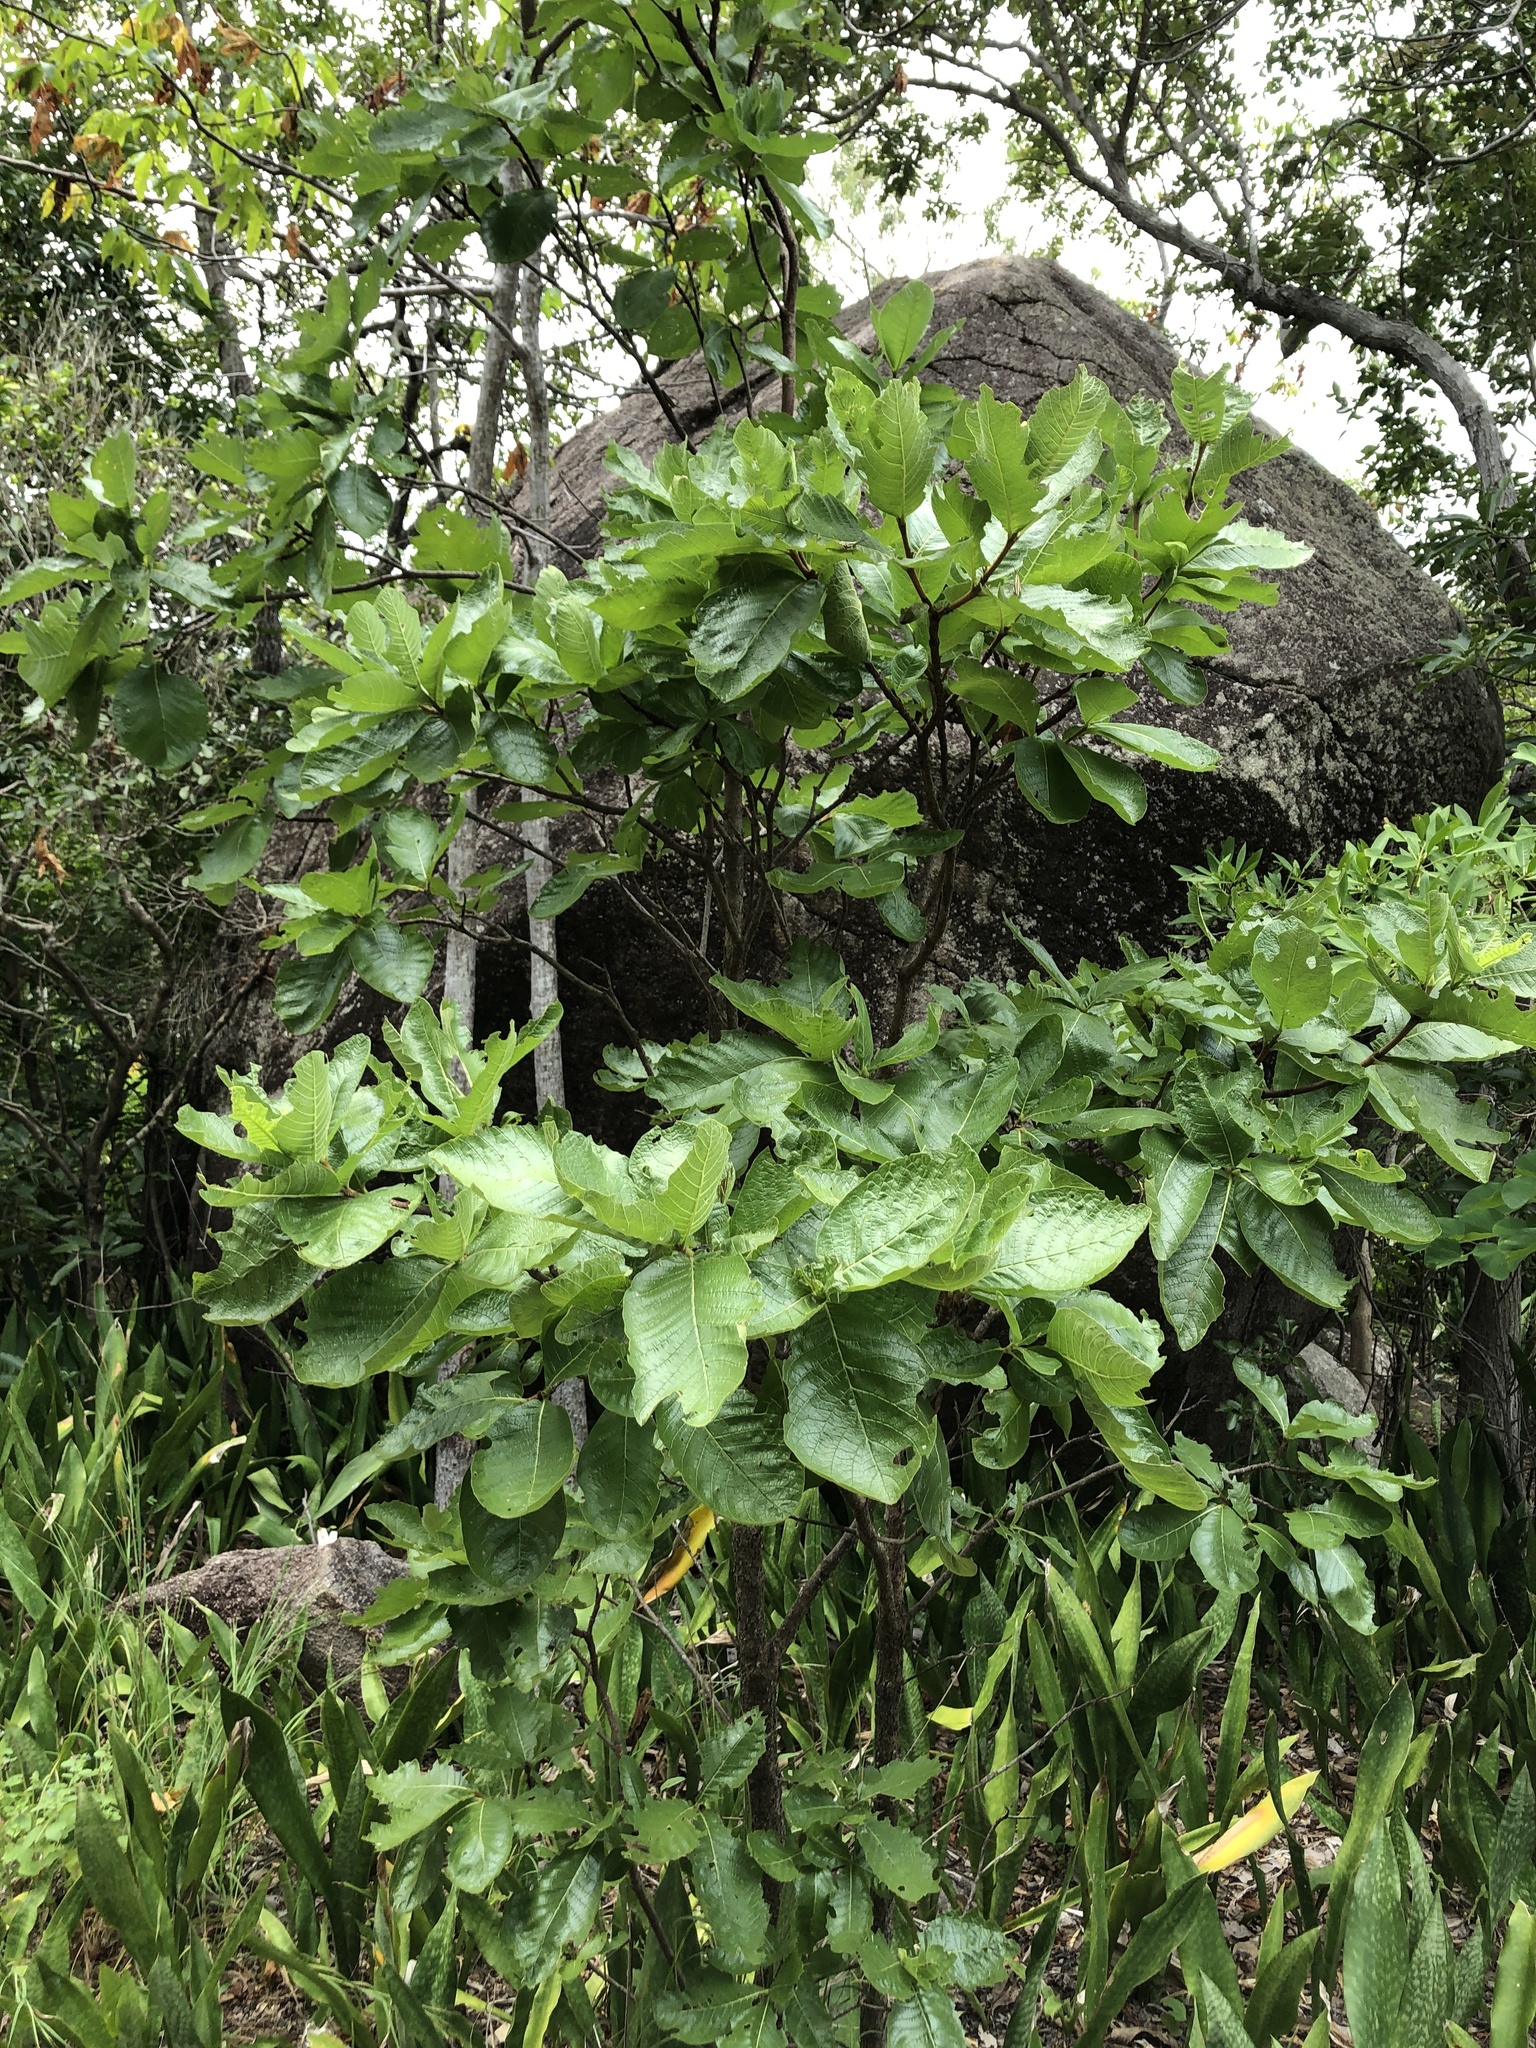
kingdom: Plantae
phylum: Tracheophyta
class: Magnoliopsida
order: Gentianales
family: Rubiaceae
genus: Larsenaikia
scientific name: Larsenaikia ochreata
